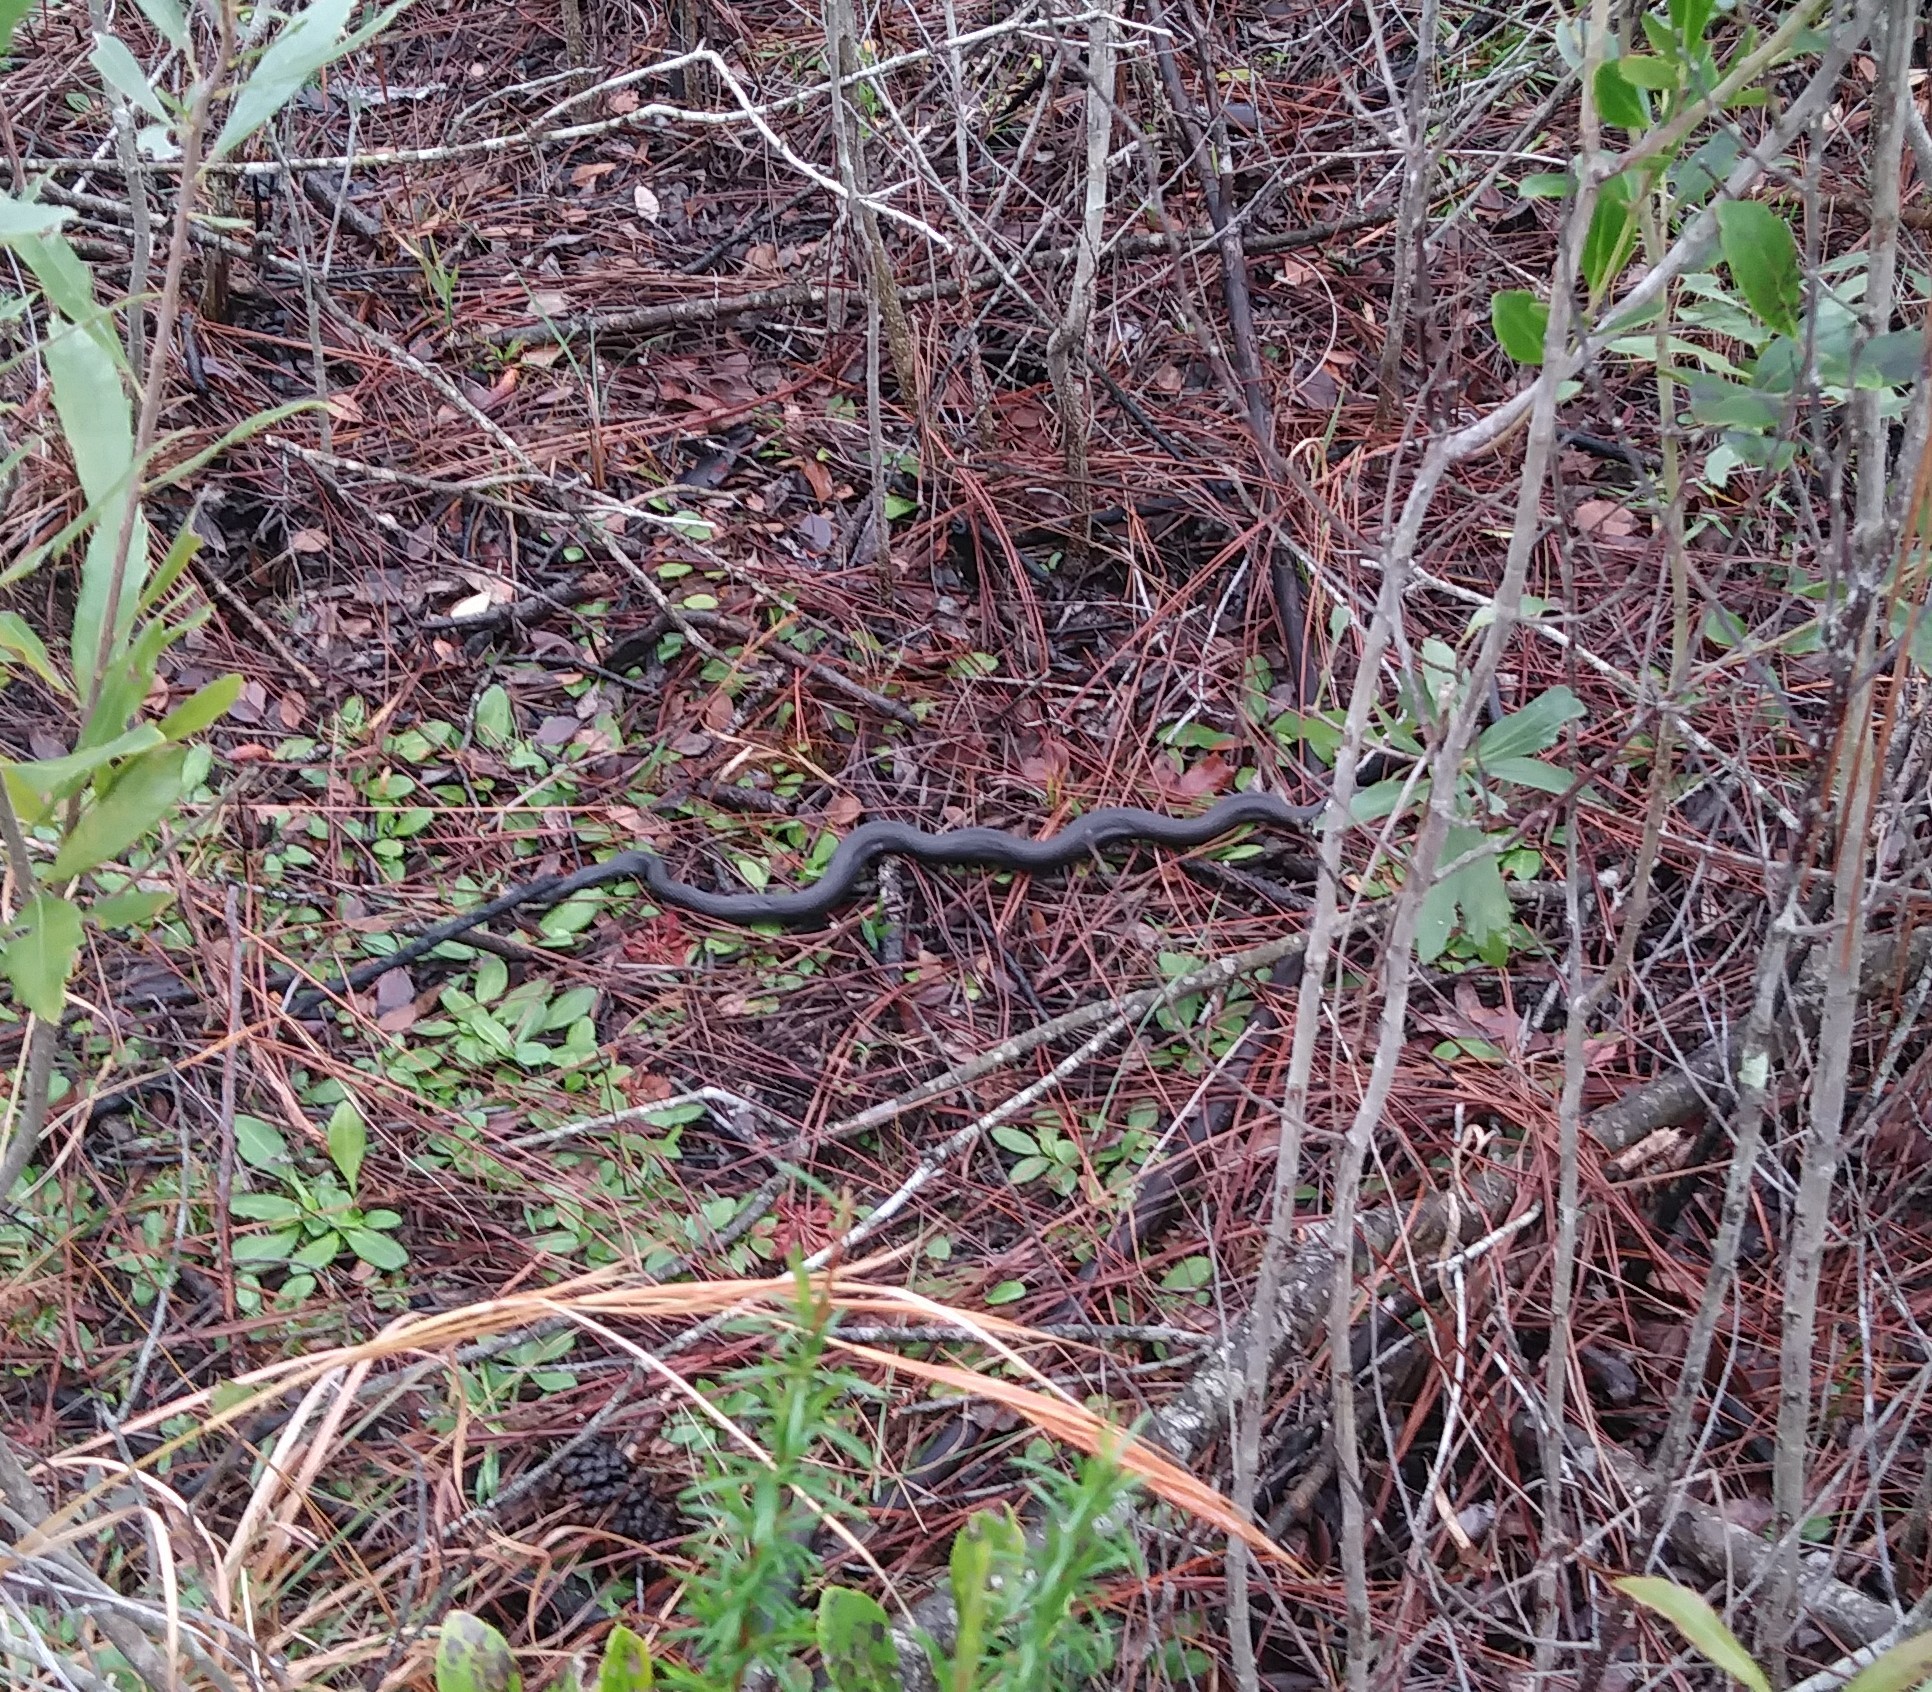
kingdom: Animalia
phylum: Chordata
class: Squamata
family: Colubridae
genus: Coluber
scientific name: Coluber constrictor
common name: Eastern racer
